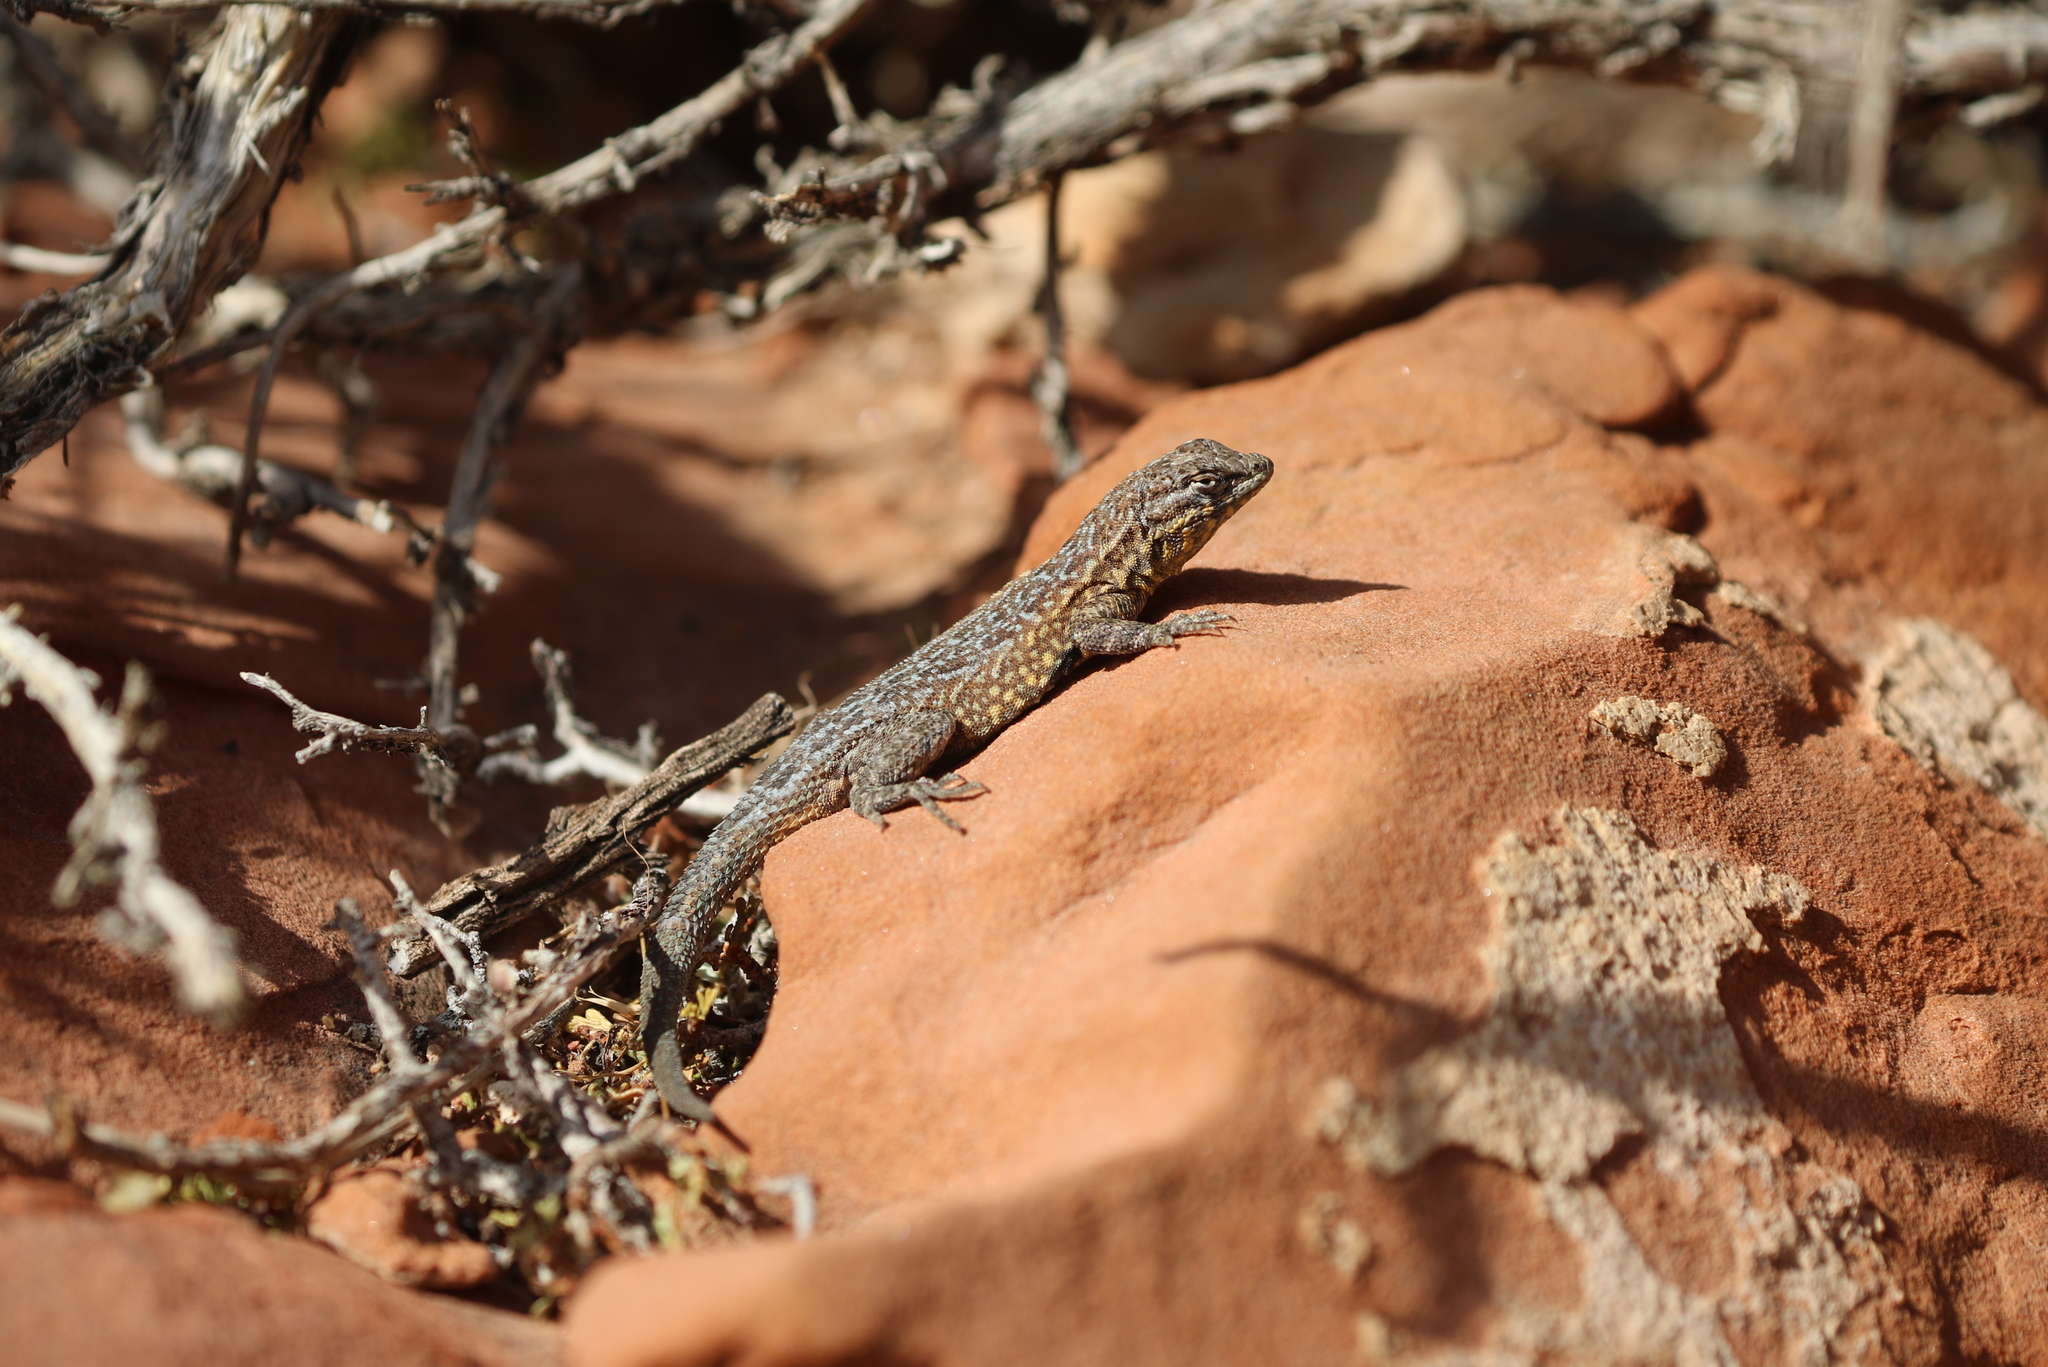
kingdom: Animalia
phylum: Chordata
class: Squamata
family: Phrynosomatidae
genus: Uta
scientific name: Uta stansburiana
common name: Side-blotched lizard
